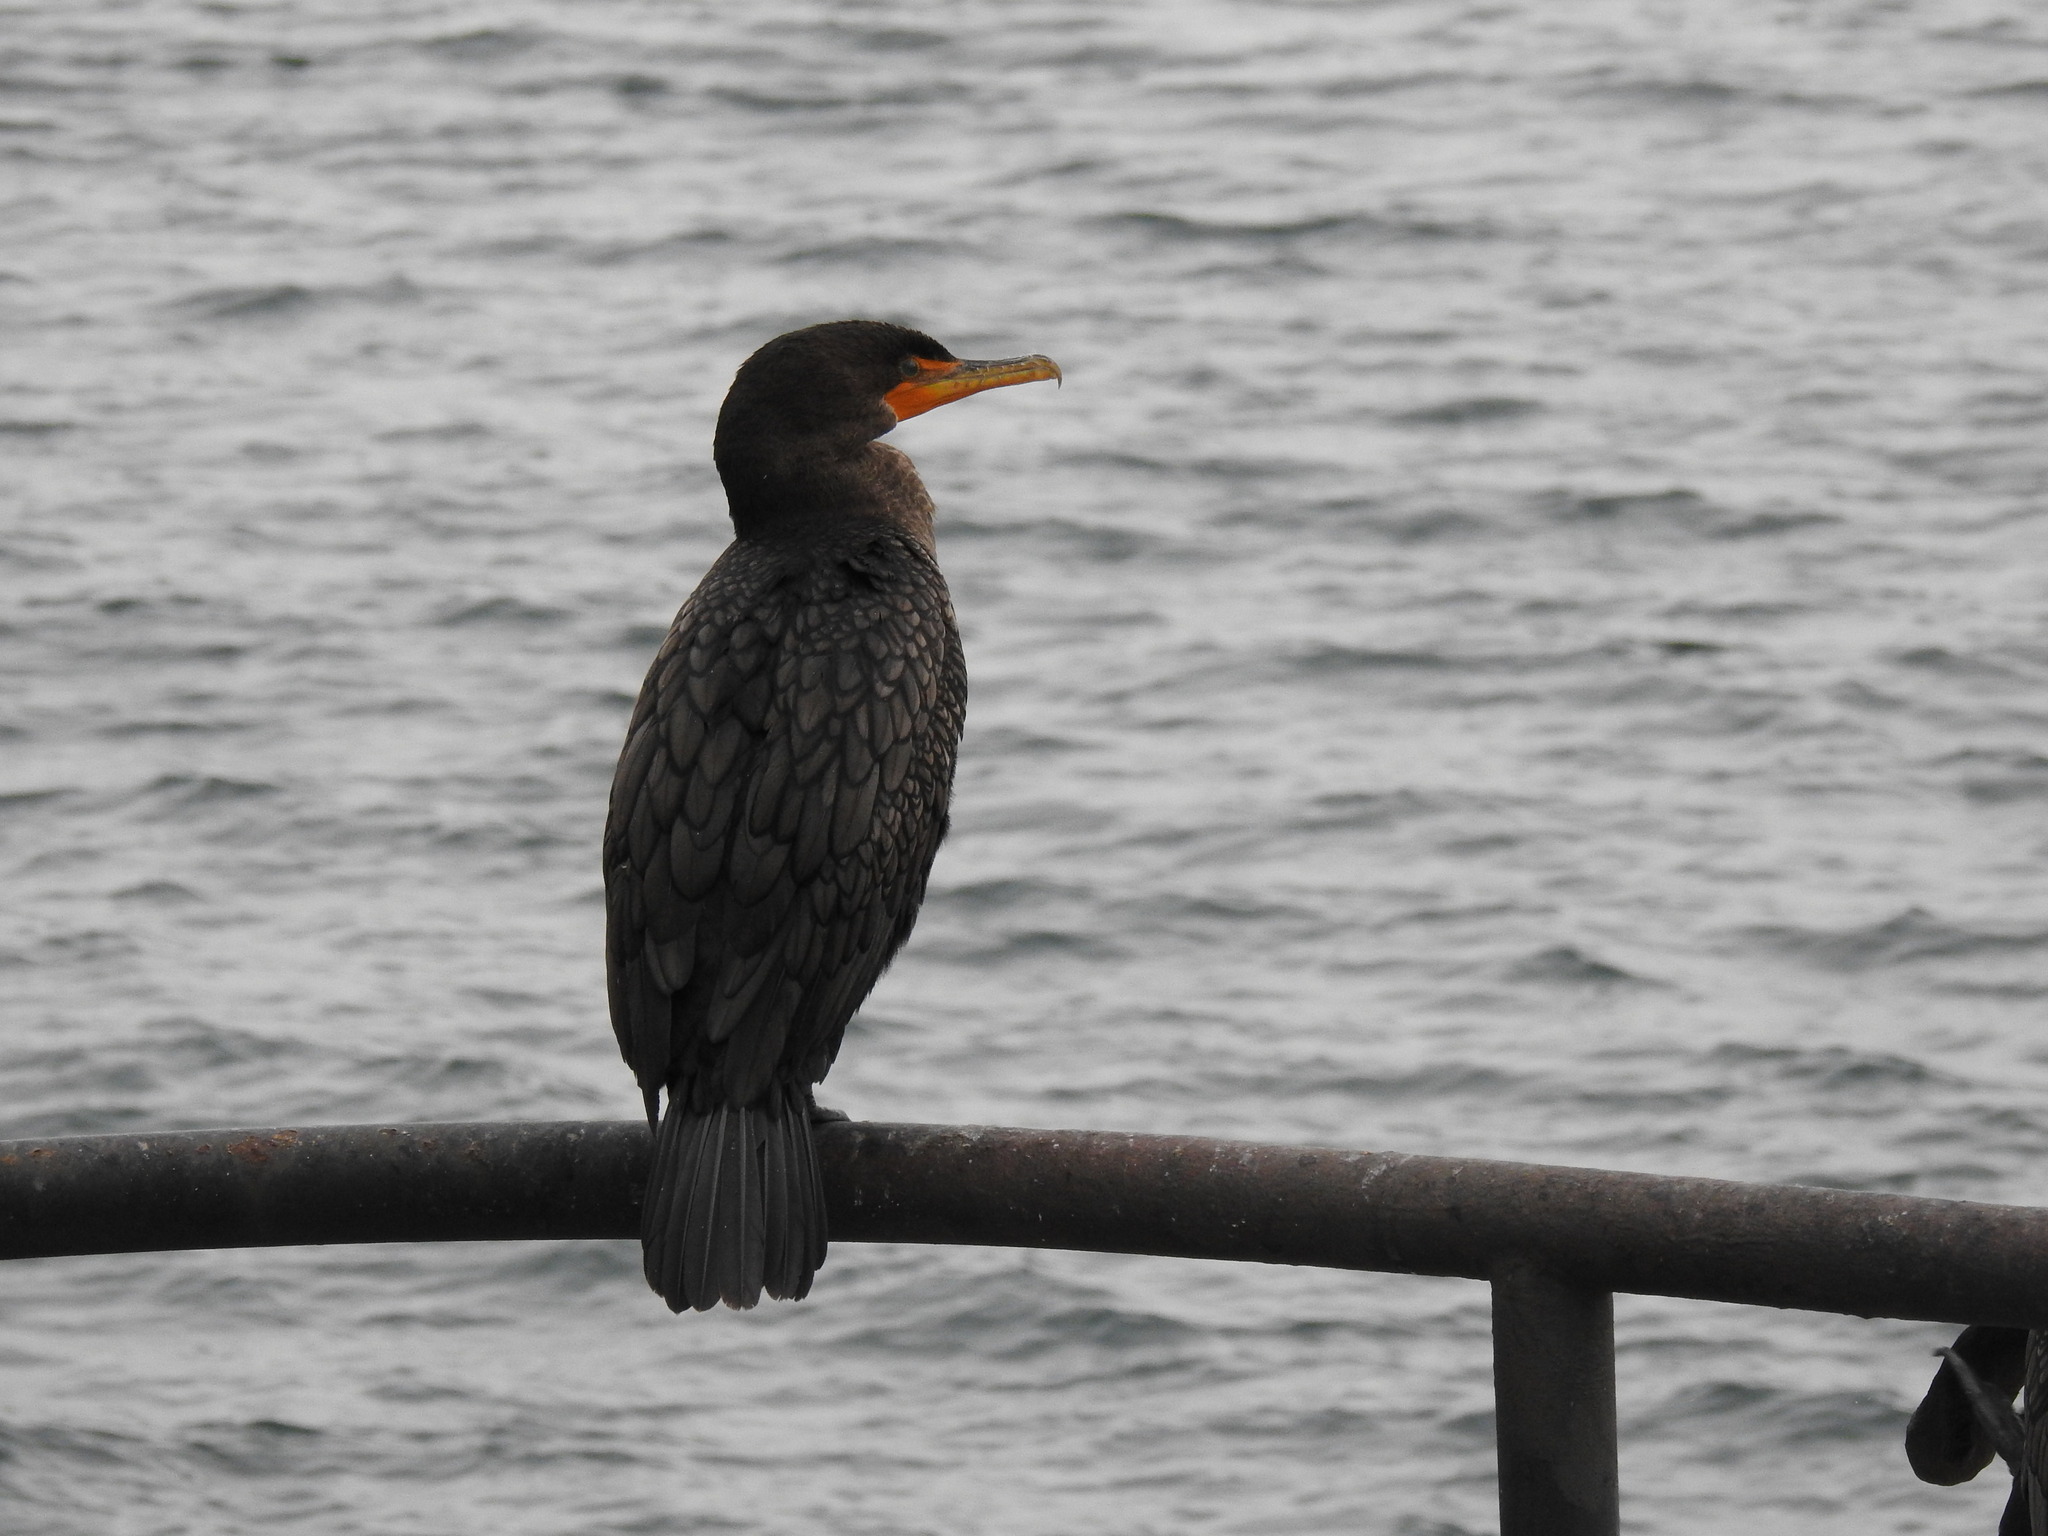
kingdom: Animalia
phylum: Chordata
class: Aves
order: Suliformes
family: Phalacrocoracidae
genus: Phalacrocorax
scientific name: Phalacrocorax auritus
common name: Double-crested cormorant
